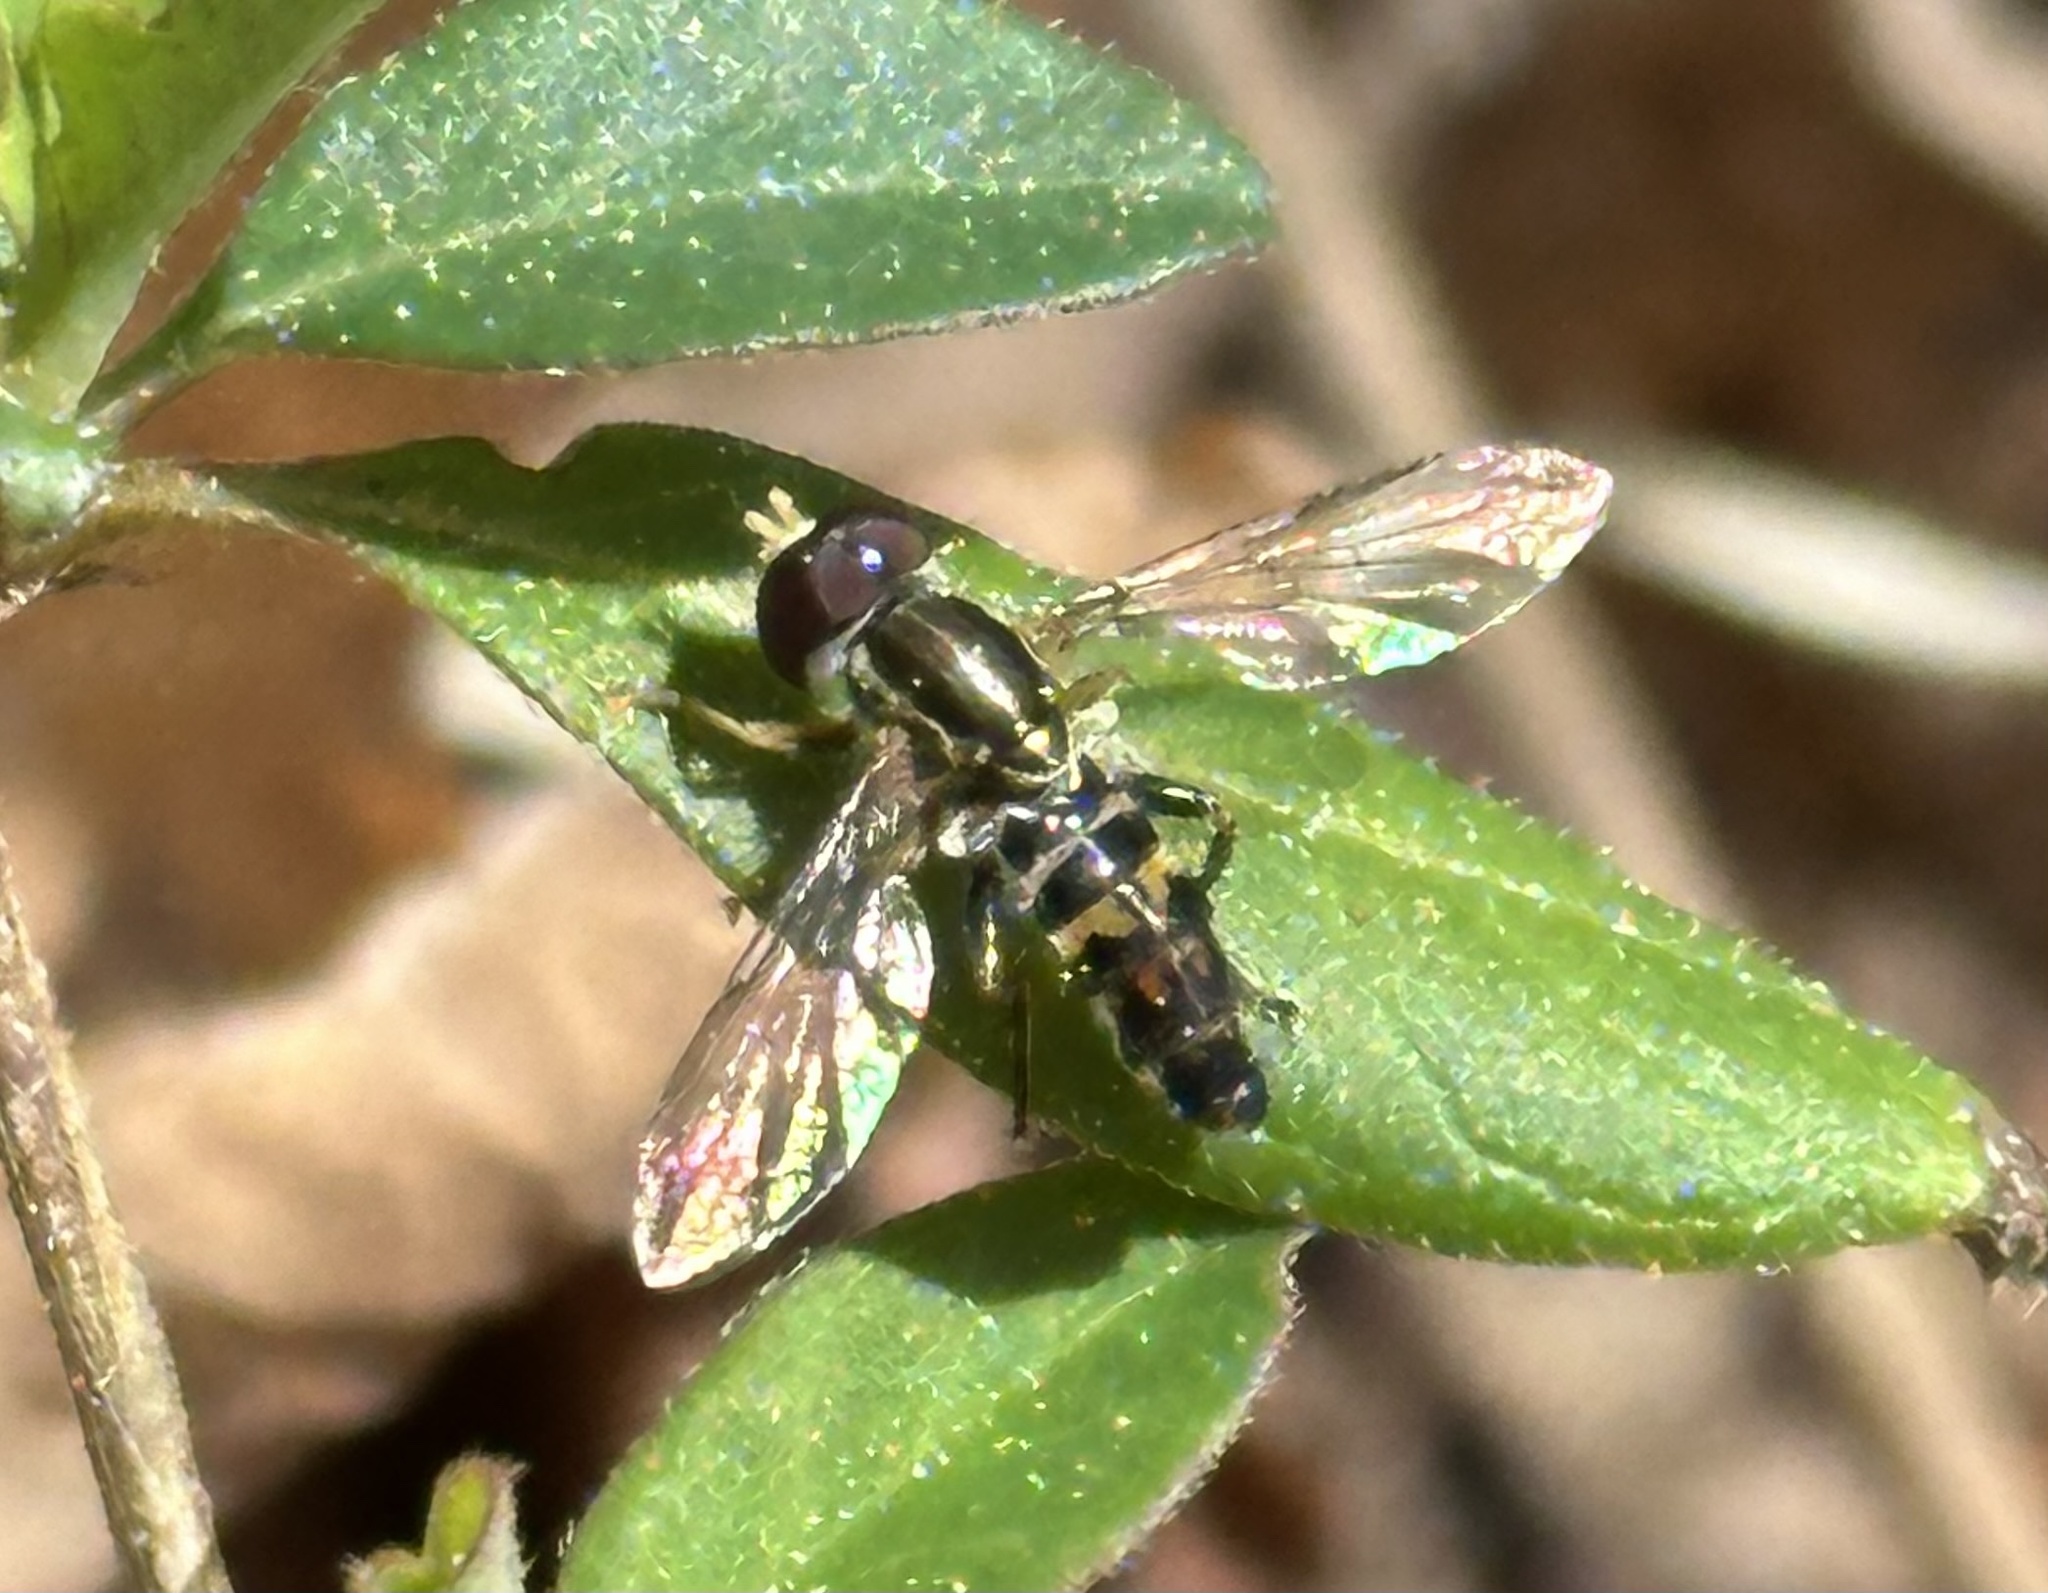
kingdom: Animalia
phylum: Arthropoda
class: Insecta
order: Diptera
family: Syrphidae
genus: Toxomerus
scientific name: Toxomerus geminatus
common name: Eastern calligrapher
